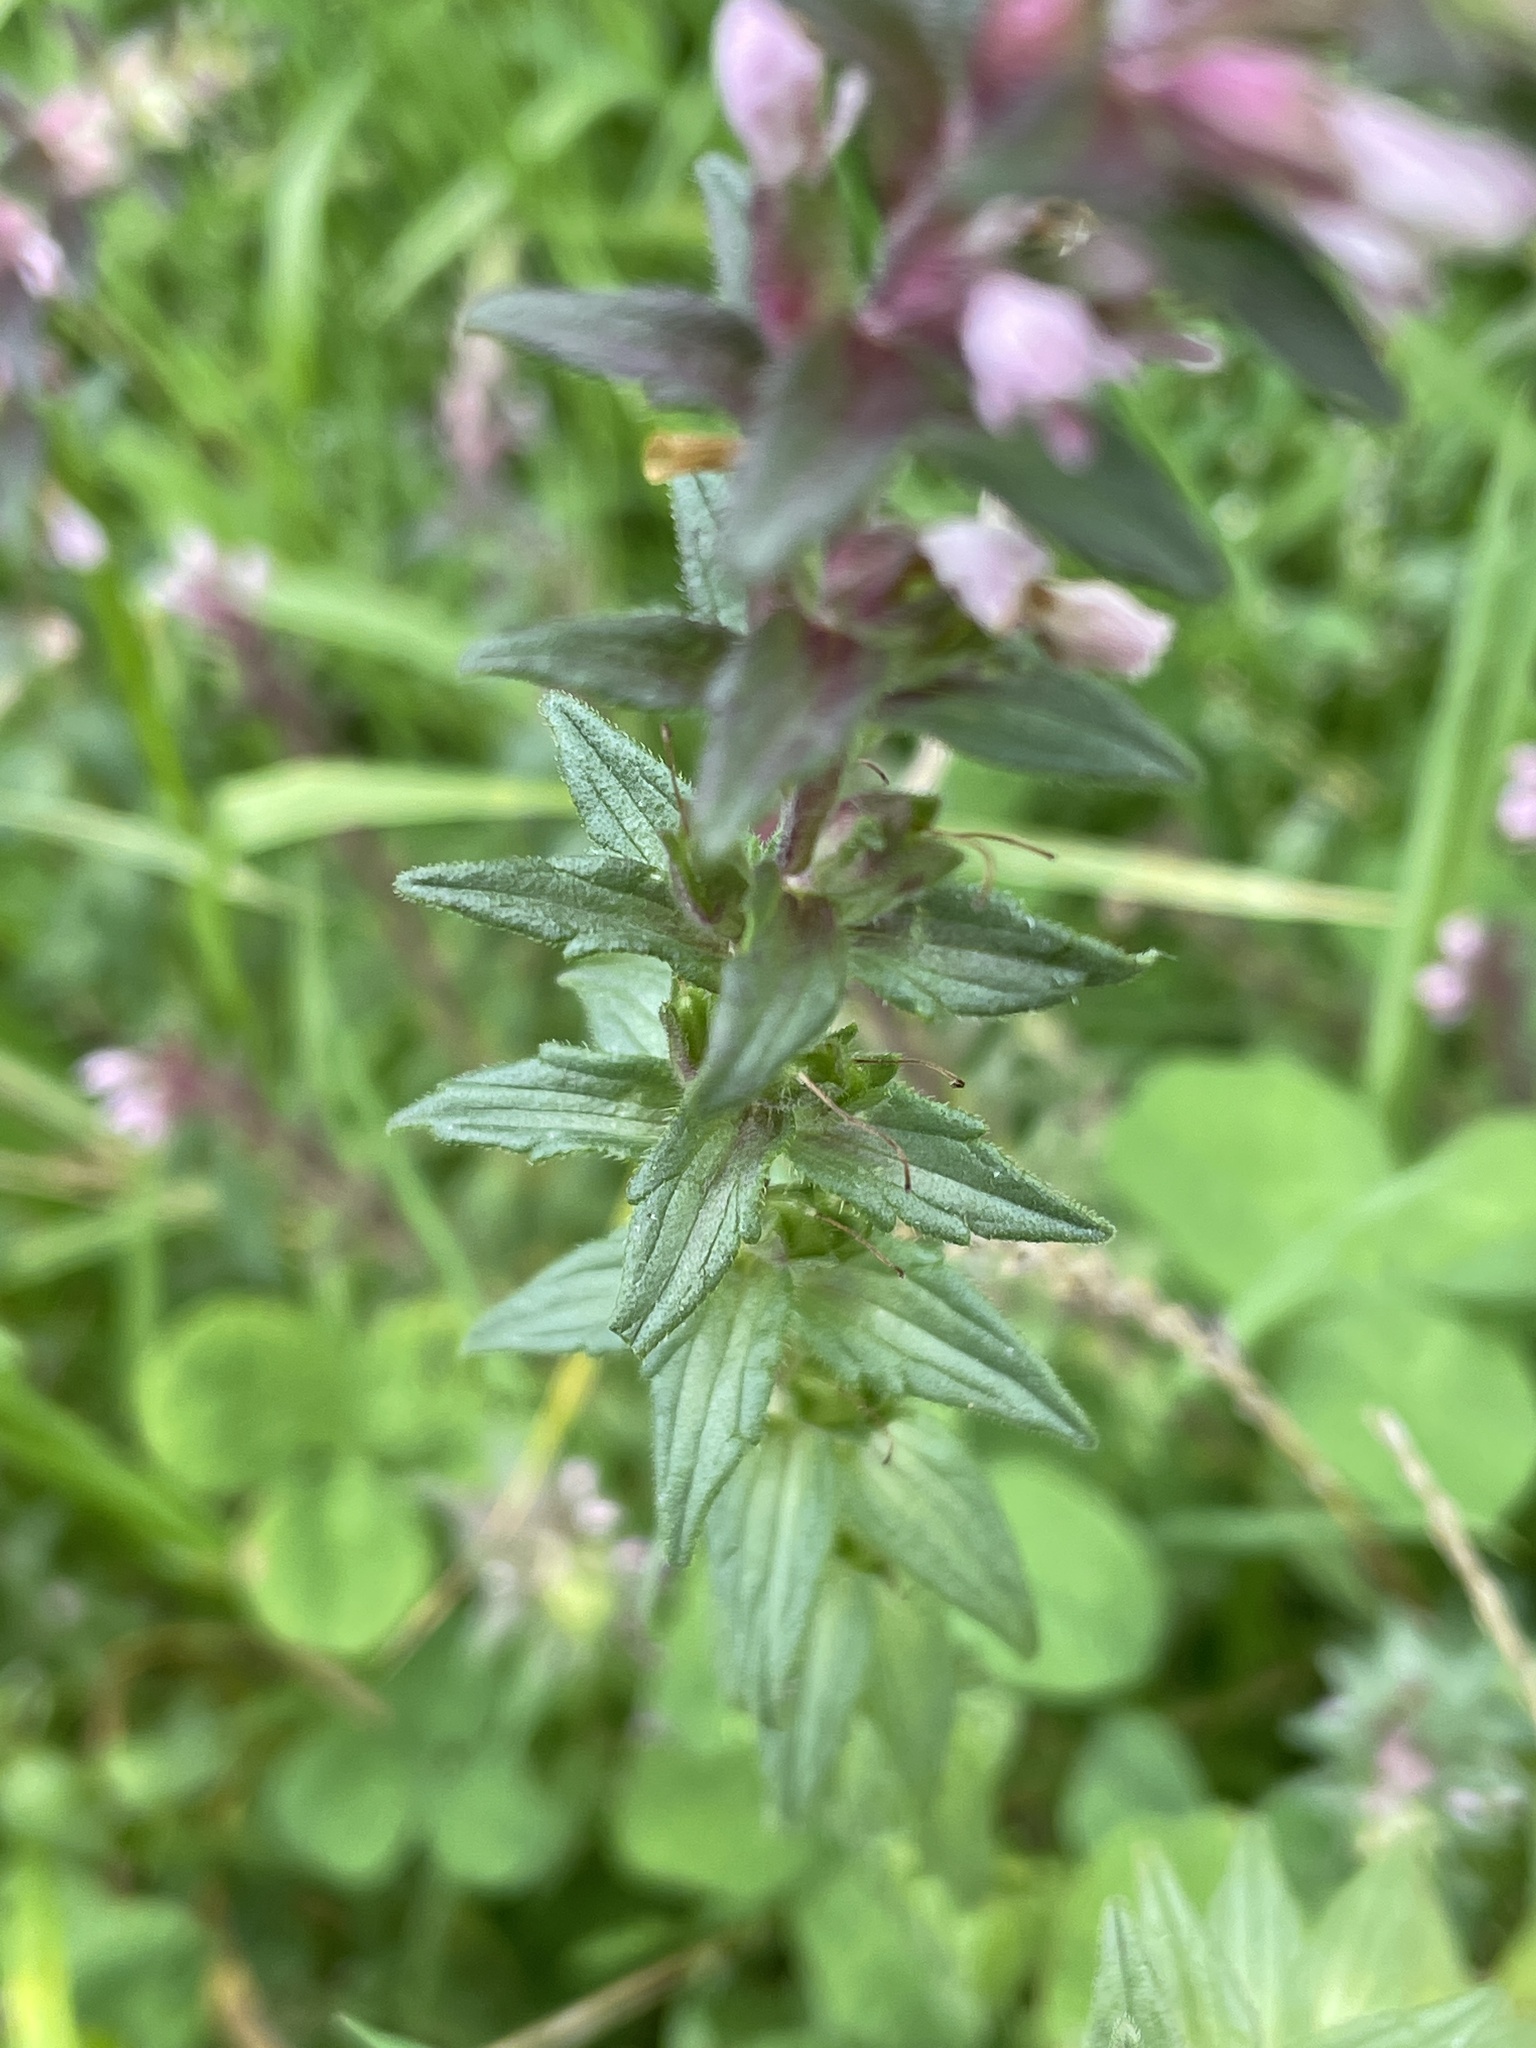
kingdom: Plantae
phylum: Tracheophyta
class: Magnoliopsida
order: Lamiales
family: Orobanchaceae
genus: Odontites
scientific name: Odontites vernus
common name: Red bartsia
